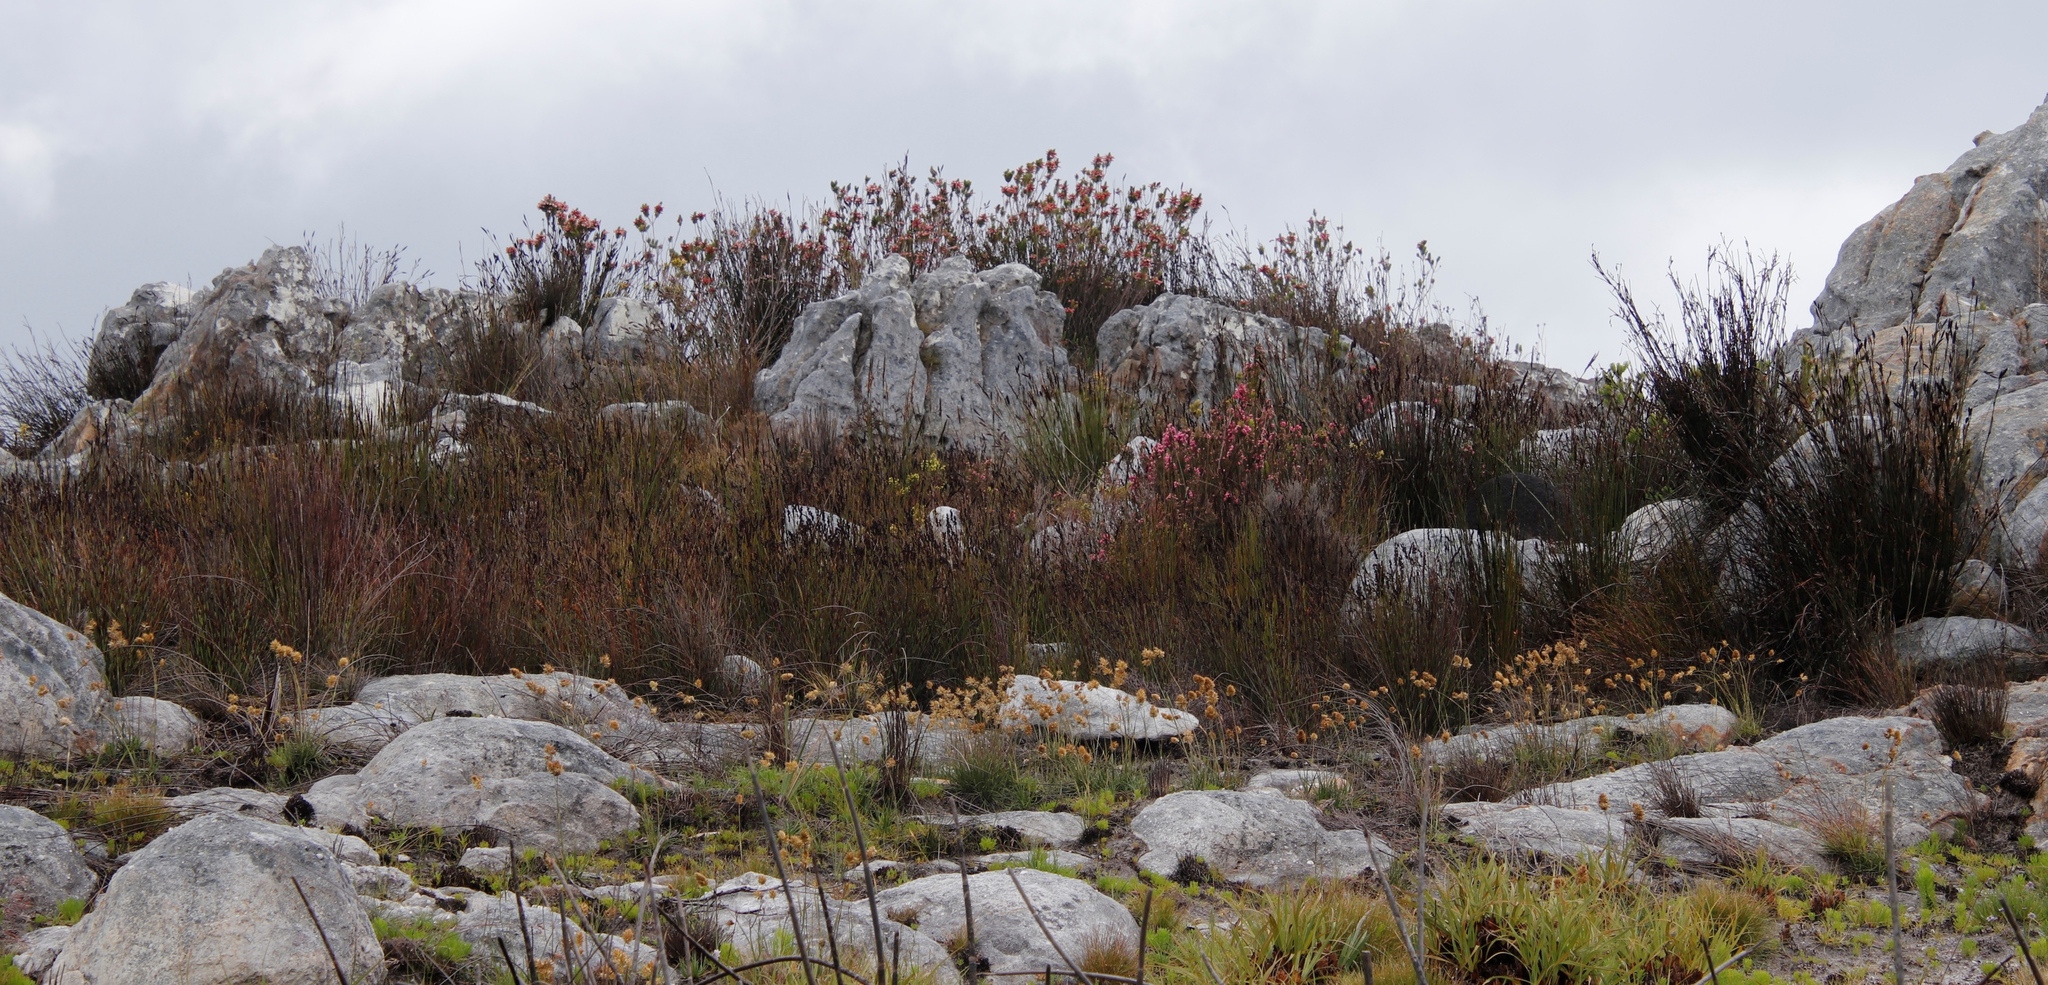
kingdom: Plantae
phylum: Tracheophyta
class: Magnoliopsida
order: Ericales
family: Ericaceae
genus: Erica
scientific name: Erica tegulifolia
